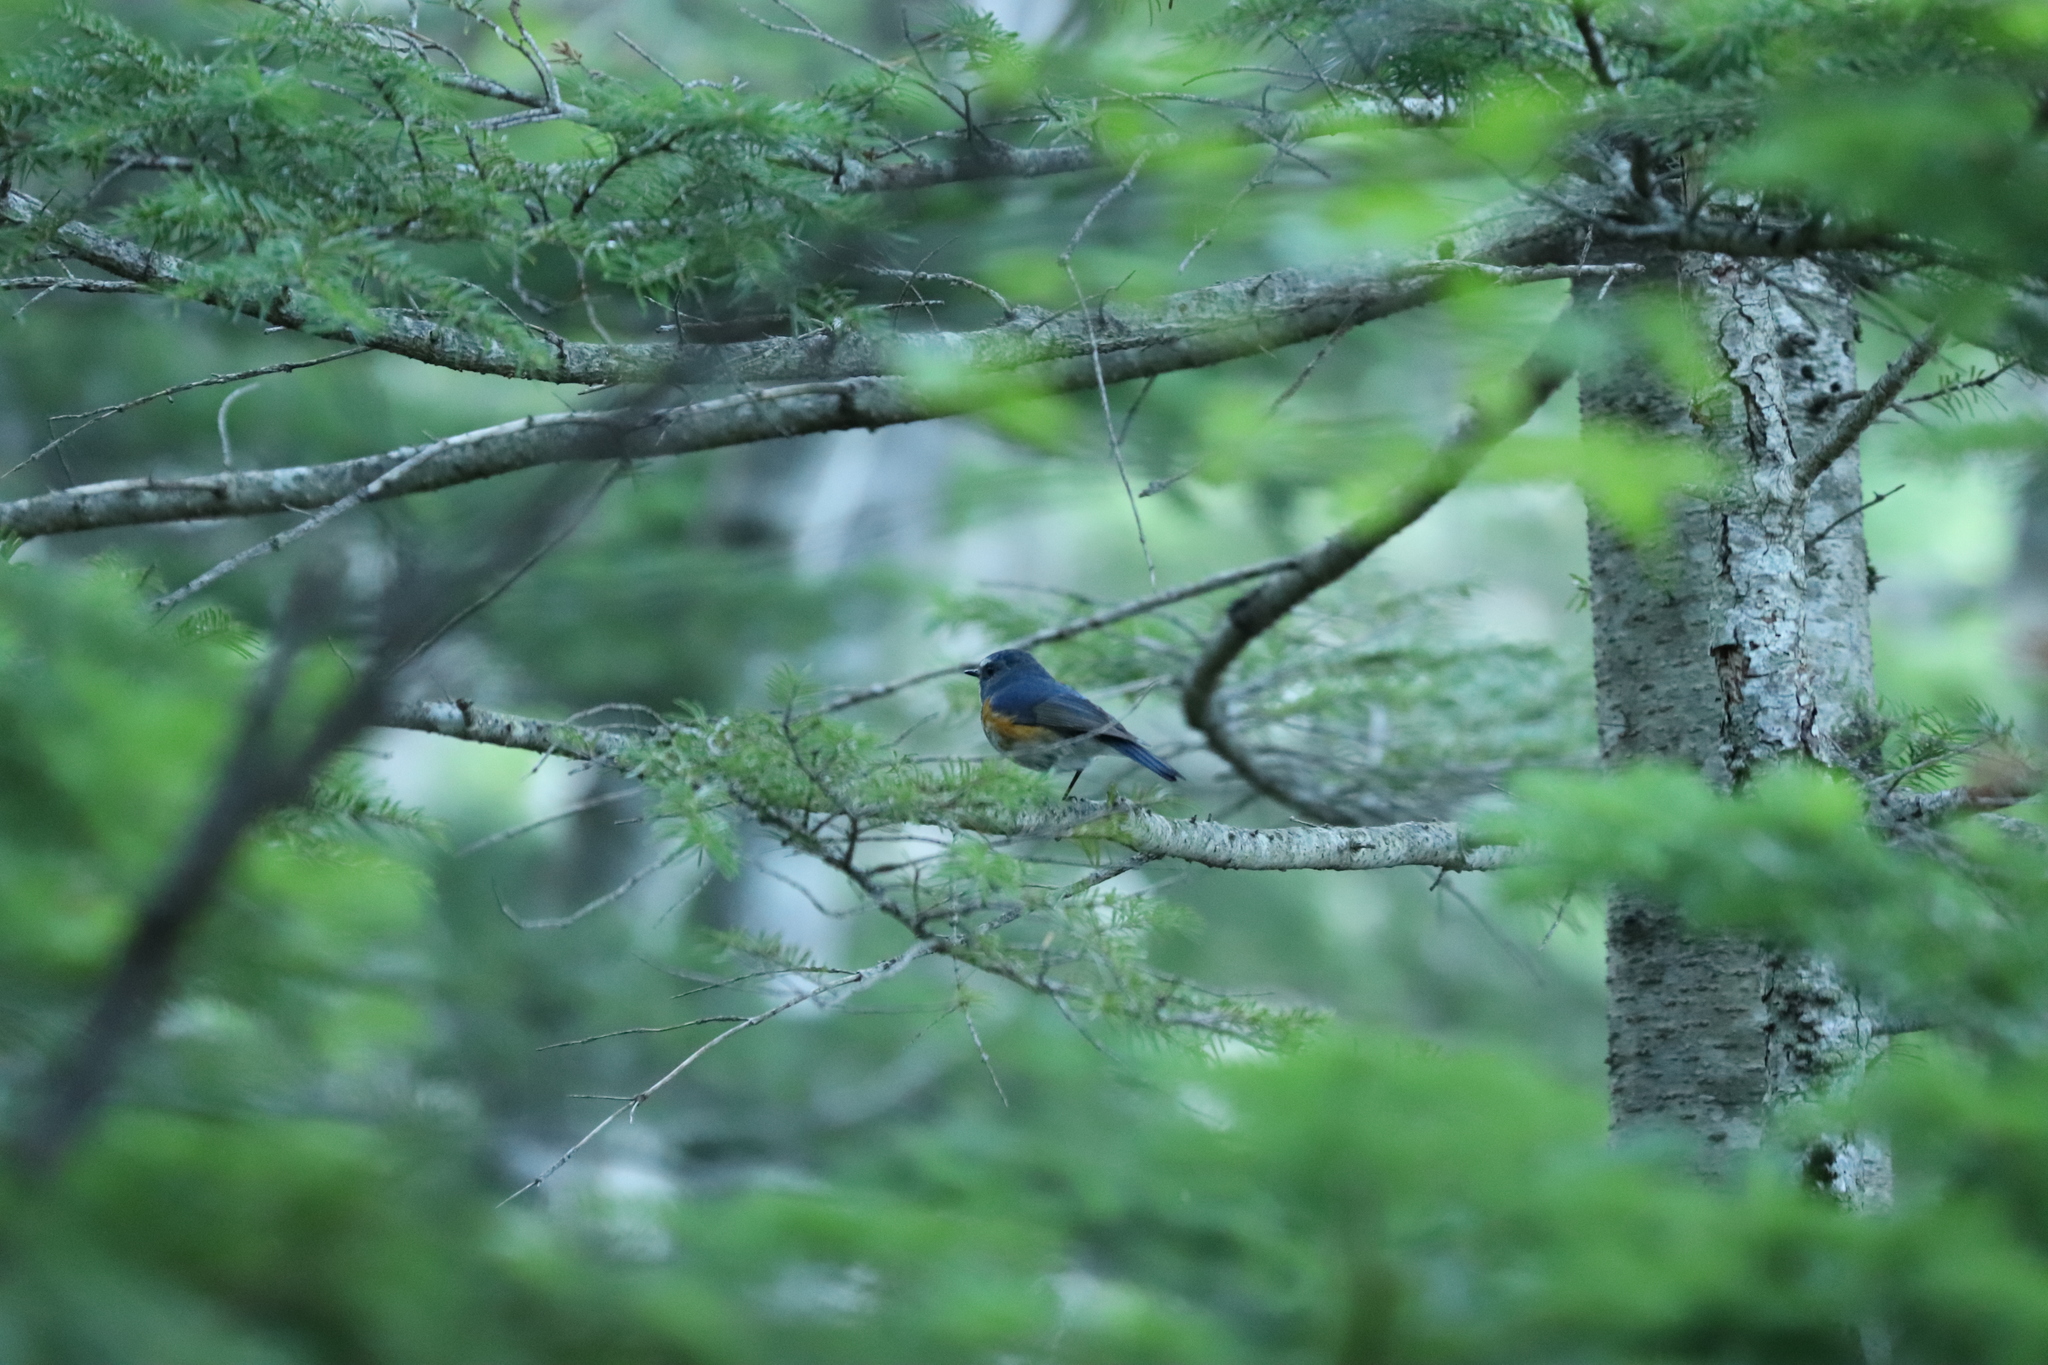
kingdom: Animalia
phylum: Chordata
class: Aves
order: Passeriformes
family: Muscicapidae
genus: Tarsiger
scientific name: Tarsiger cyanurus
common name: Red-flanked bluetail
